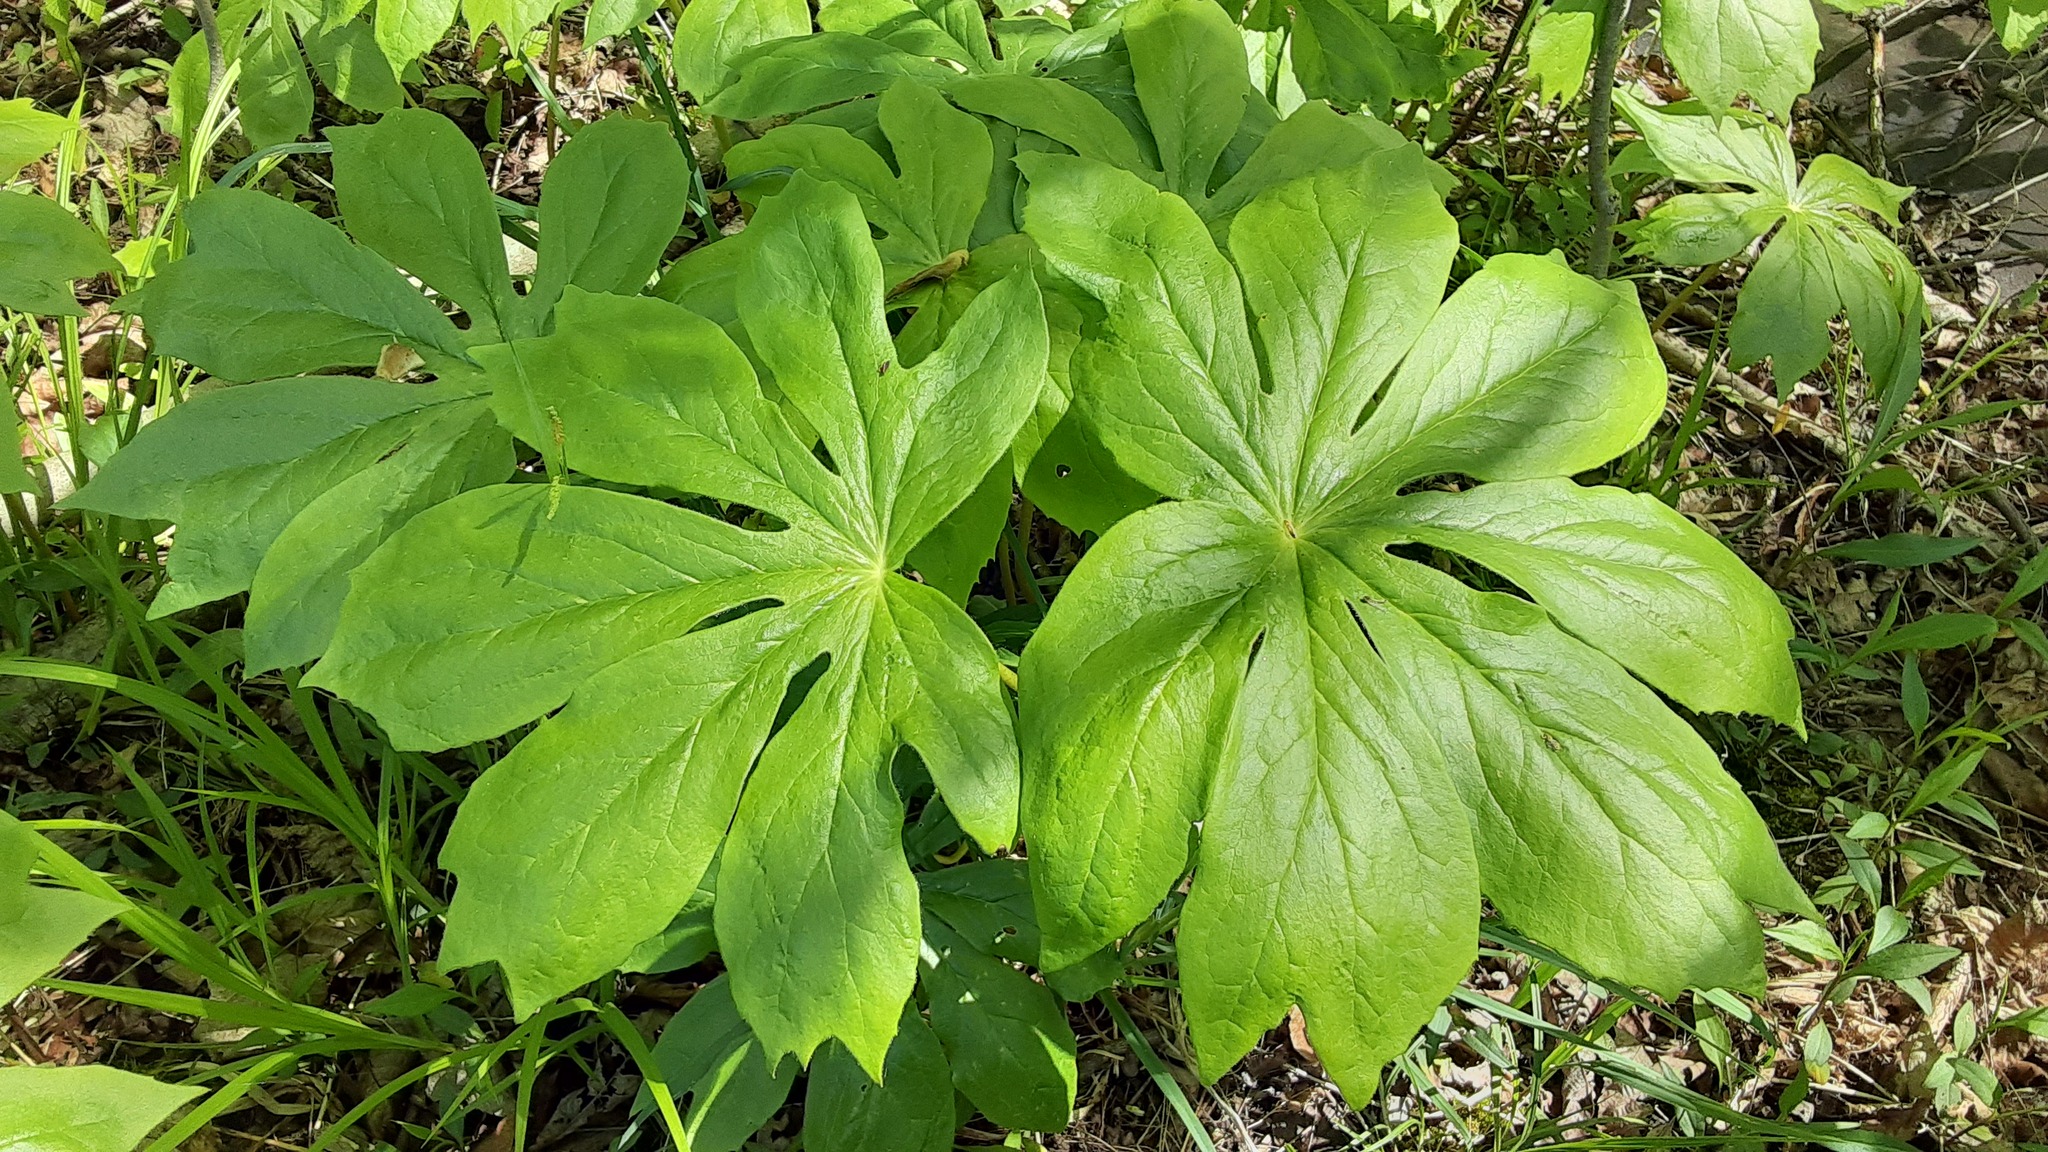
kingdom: Plantae
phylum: Tracheophyta
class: Magnoliopsida
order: Ranunculales
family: Berberidaceae
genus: Podophyllum
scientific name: Podophyllum peltatum
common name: Wild mandrake
